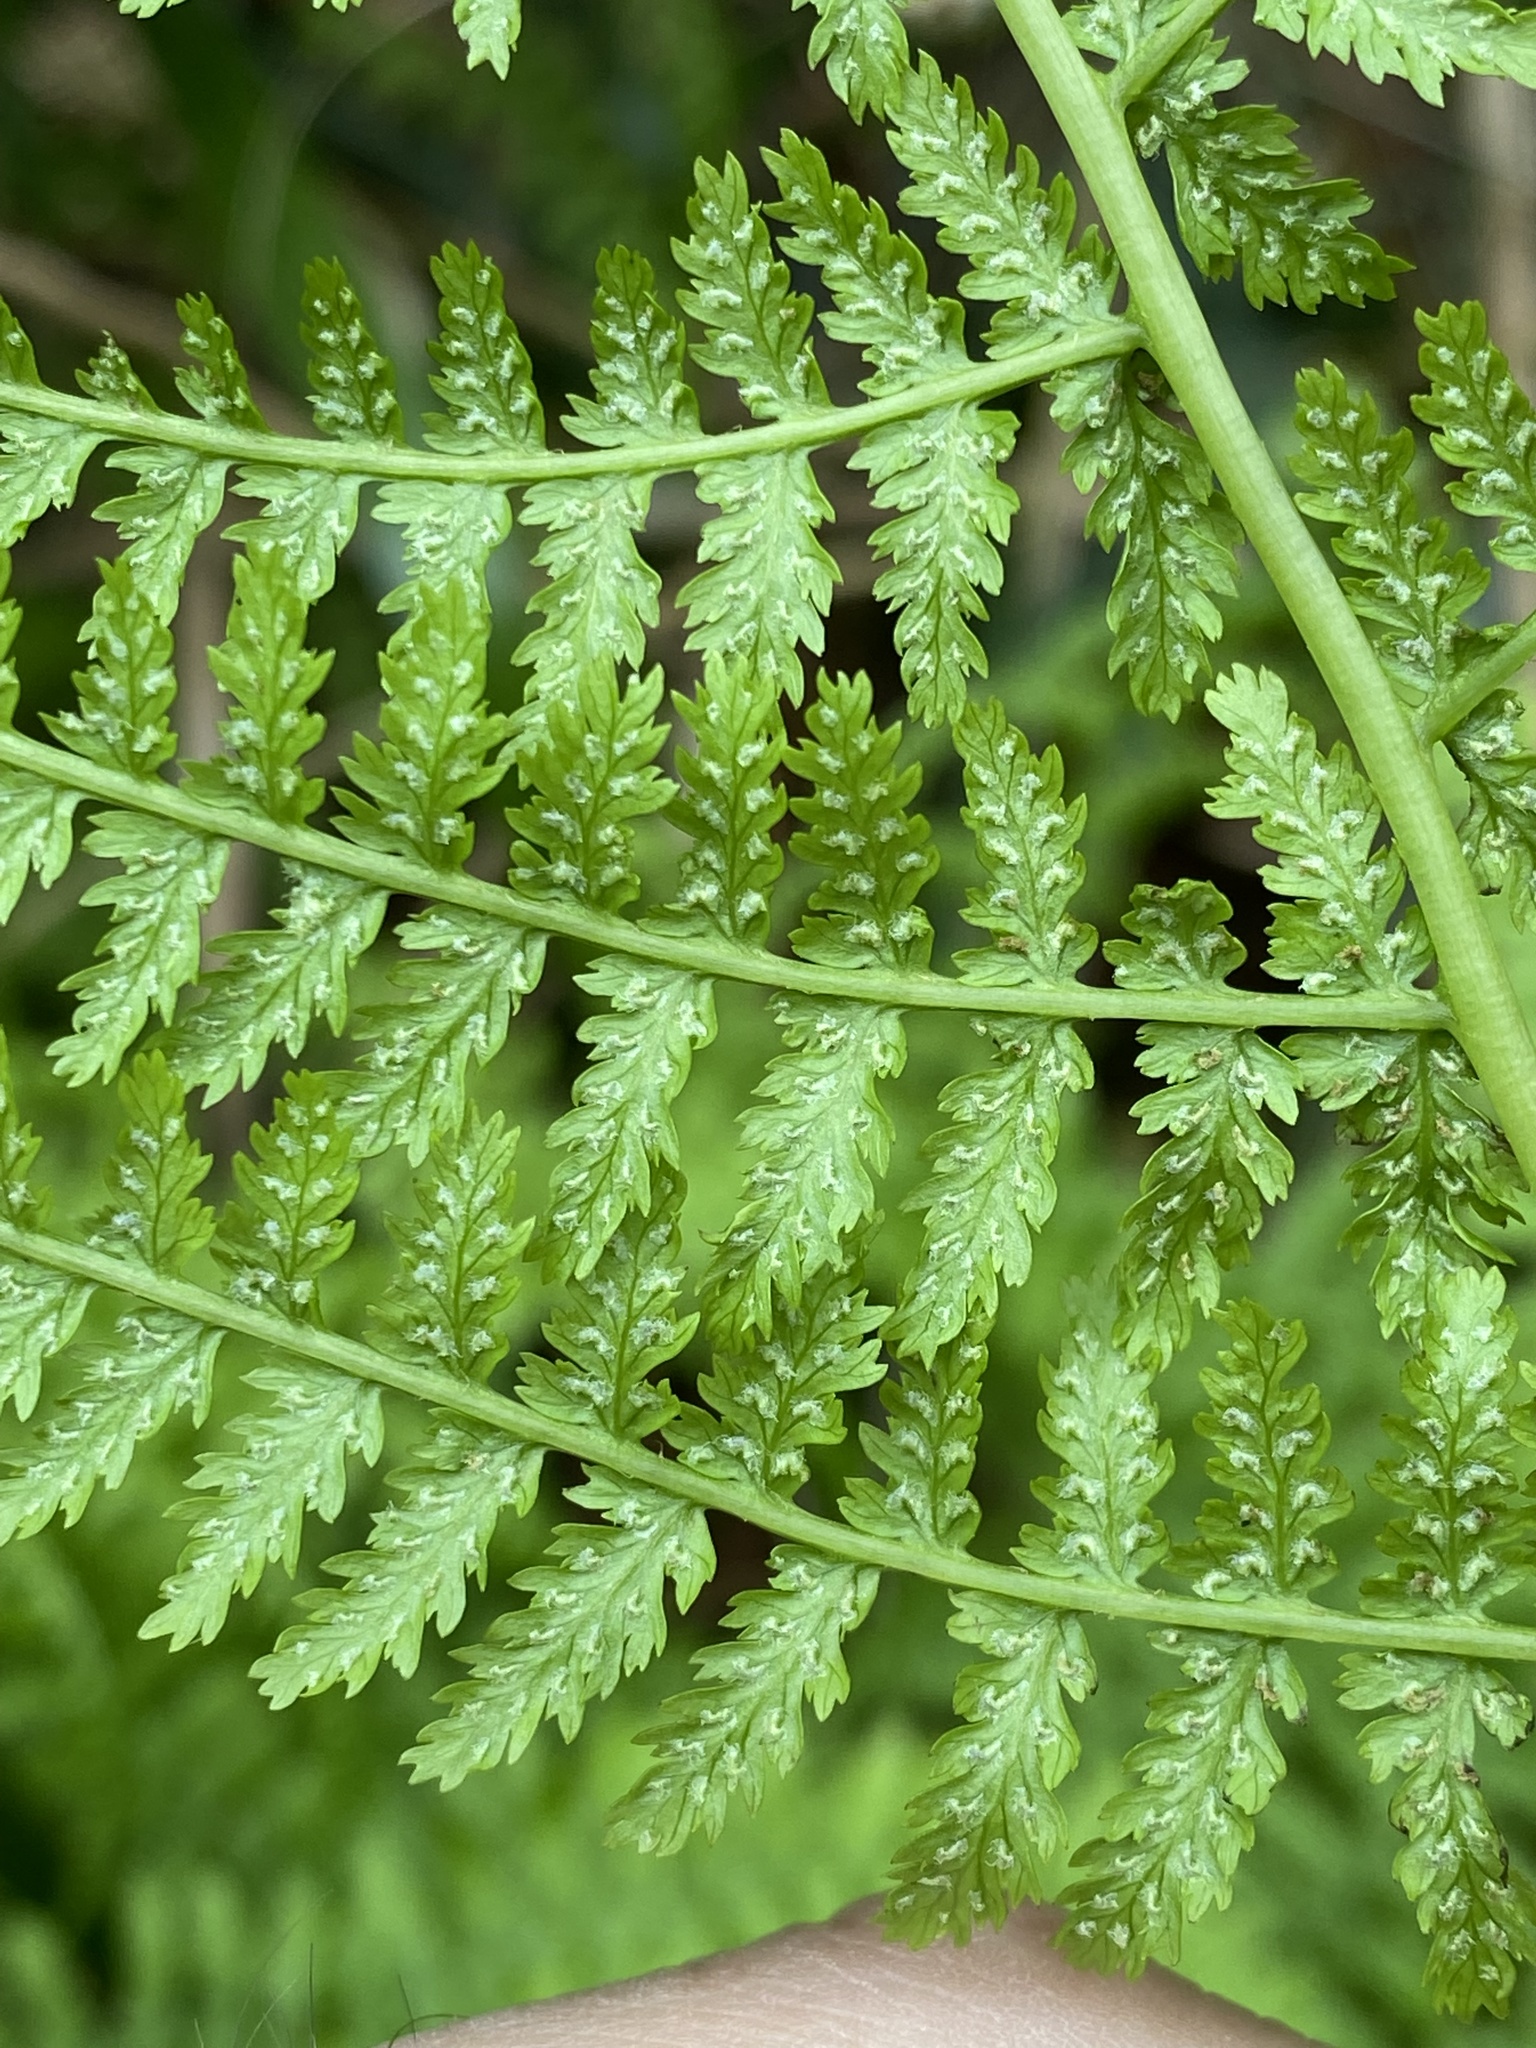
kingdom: Plantae
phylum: Tracheophyta
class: Polypodiopsida
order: Polypodiales
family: Athyriaceae
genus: Athyrium
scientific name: Athyrium filix-femina
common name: Lady fern
